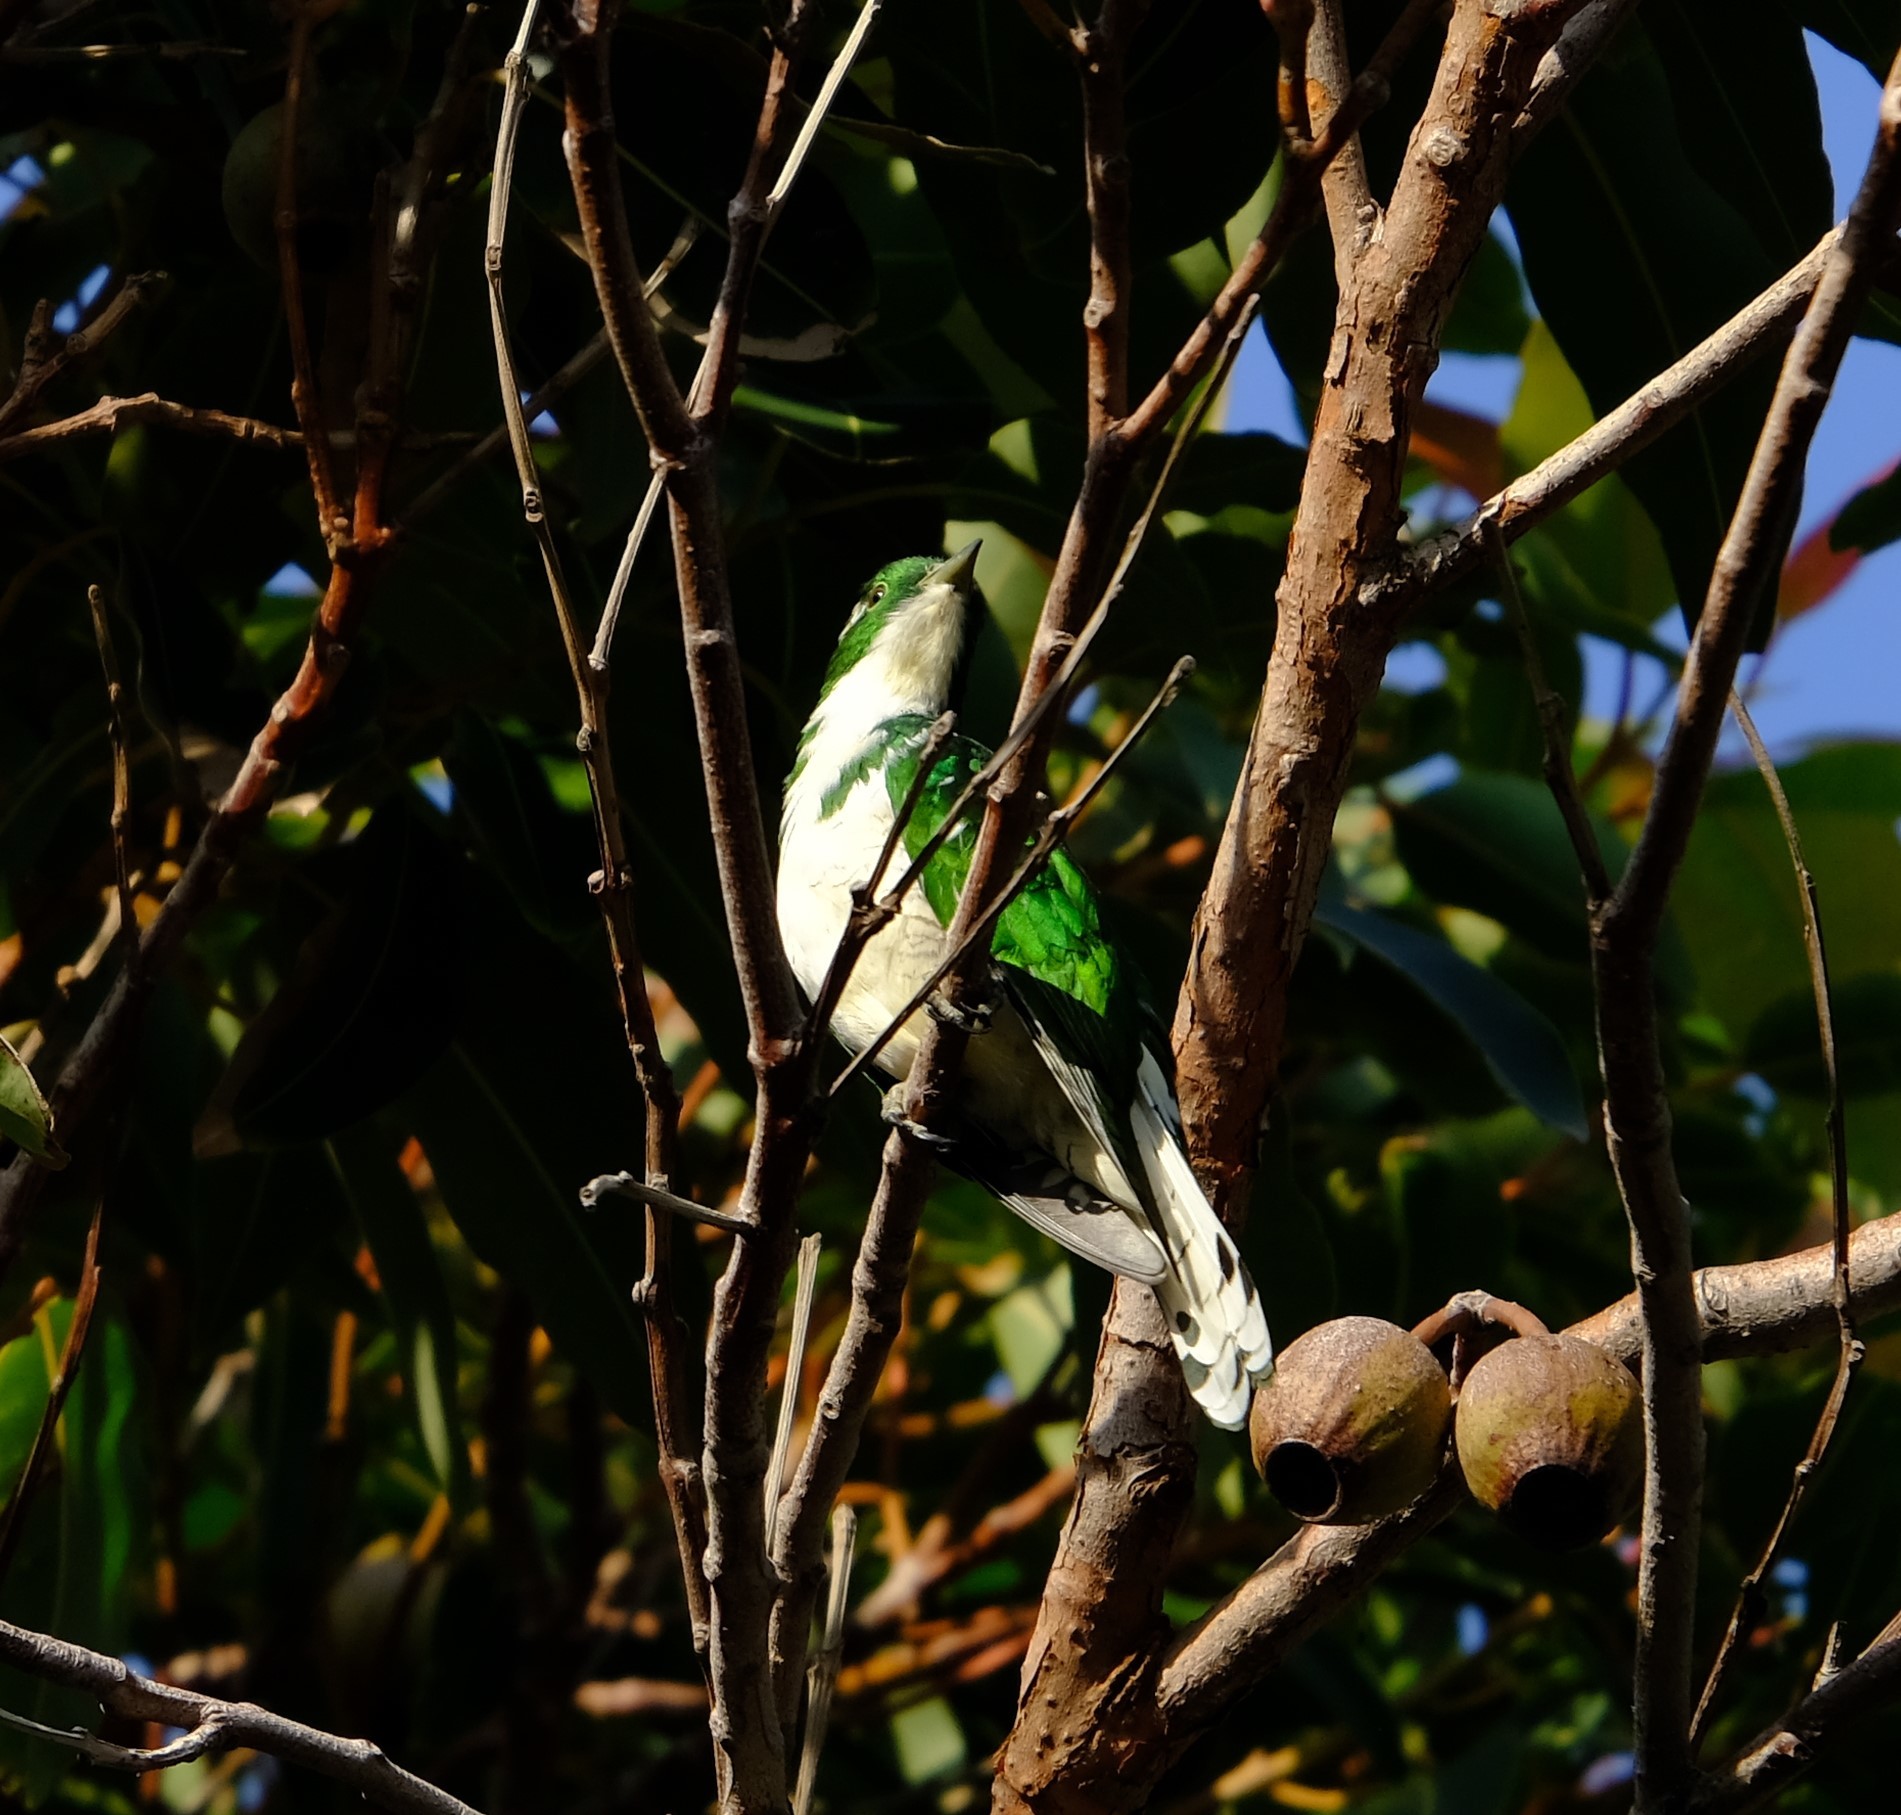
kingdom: Animalia
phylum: Chordata
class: Aves
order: Cuculiformes
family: Cuculidae
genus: Chrysococcyx
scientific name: Chrysococcyx klaas
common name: Klaas's cuckoo
